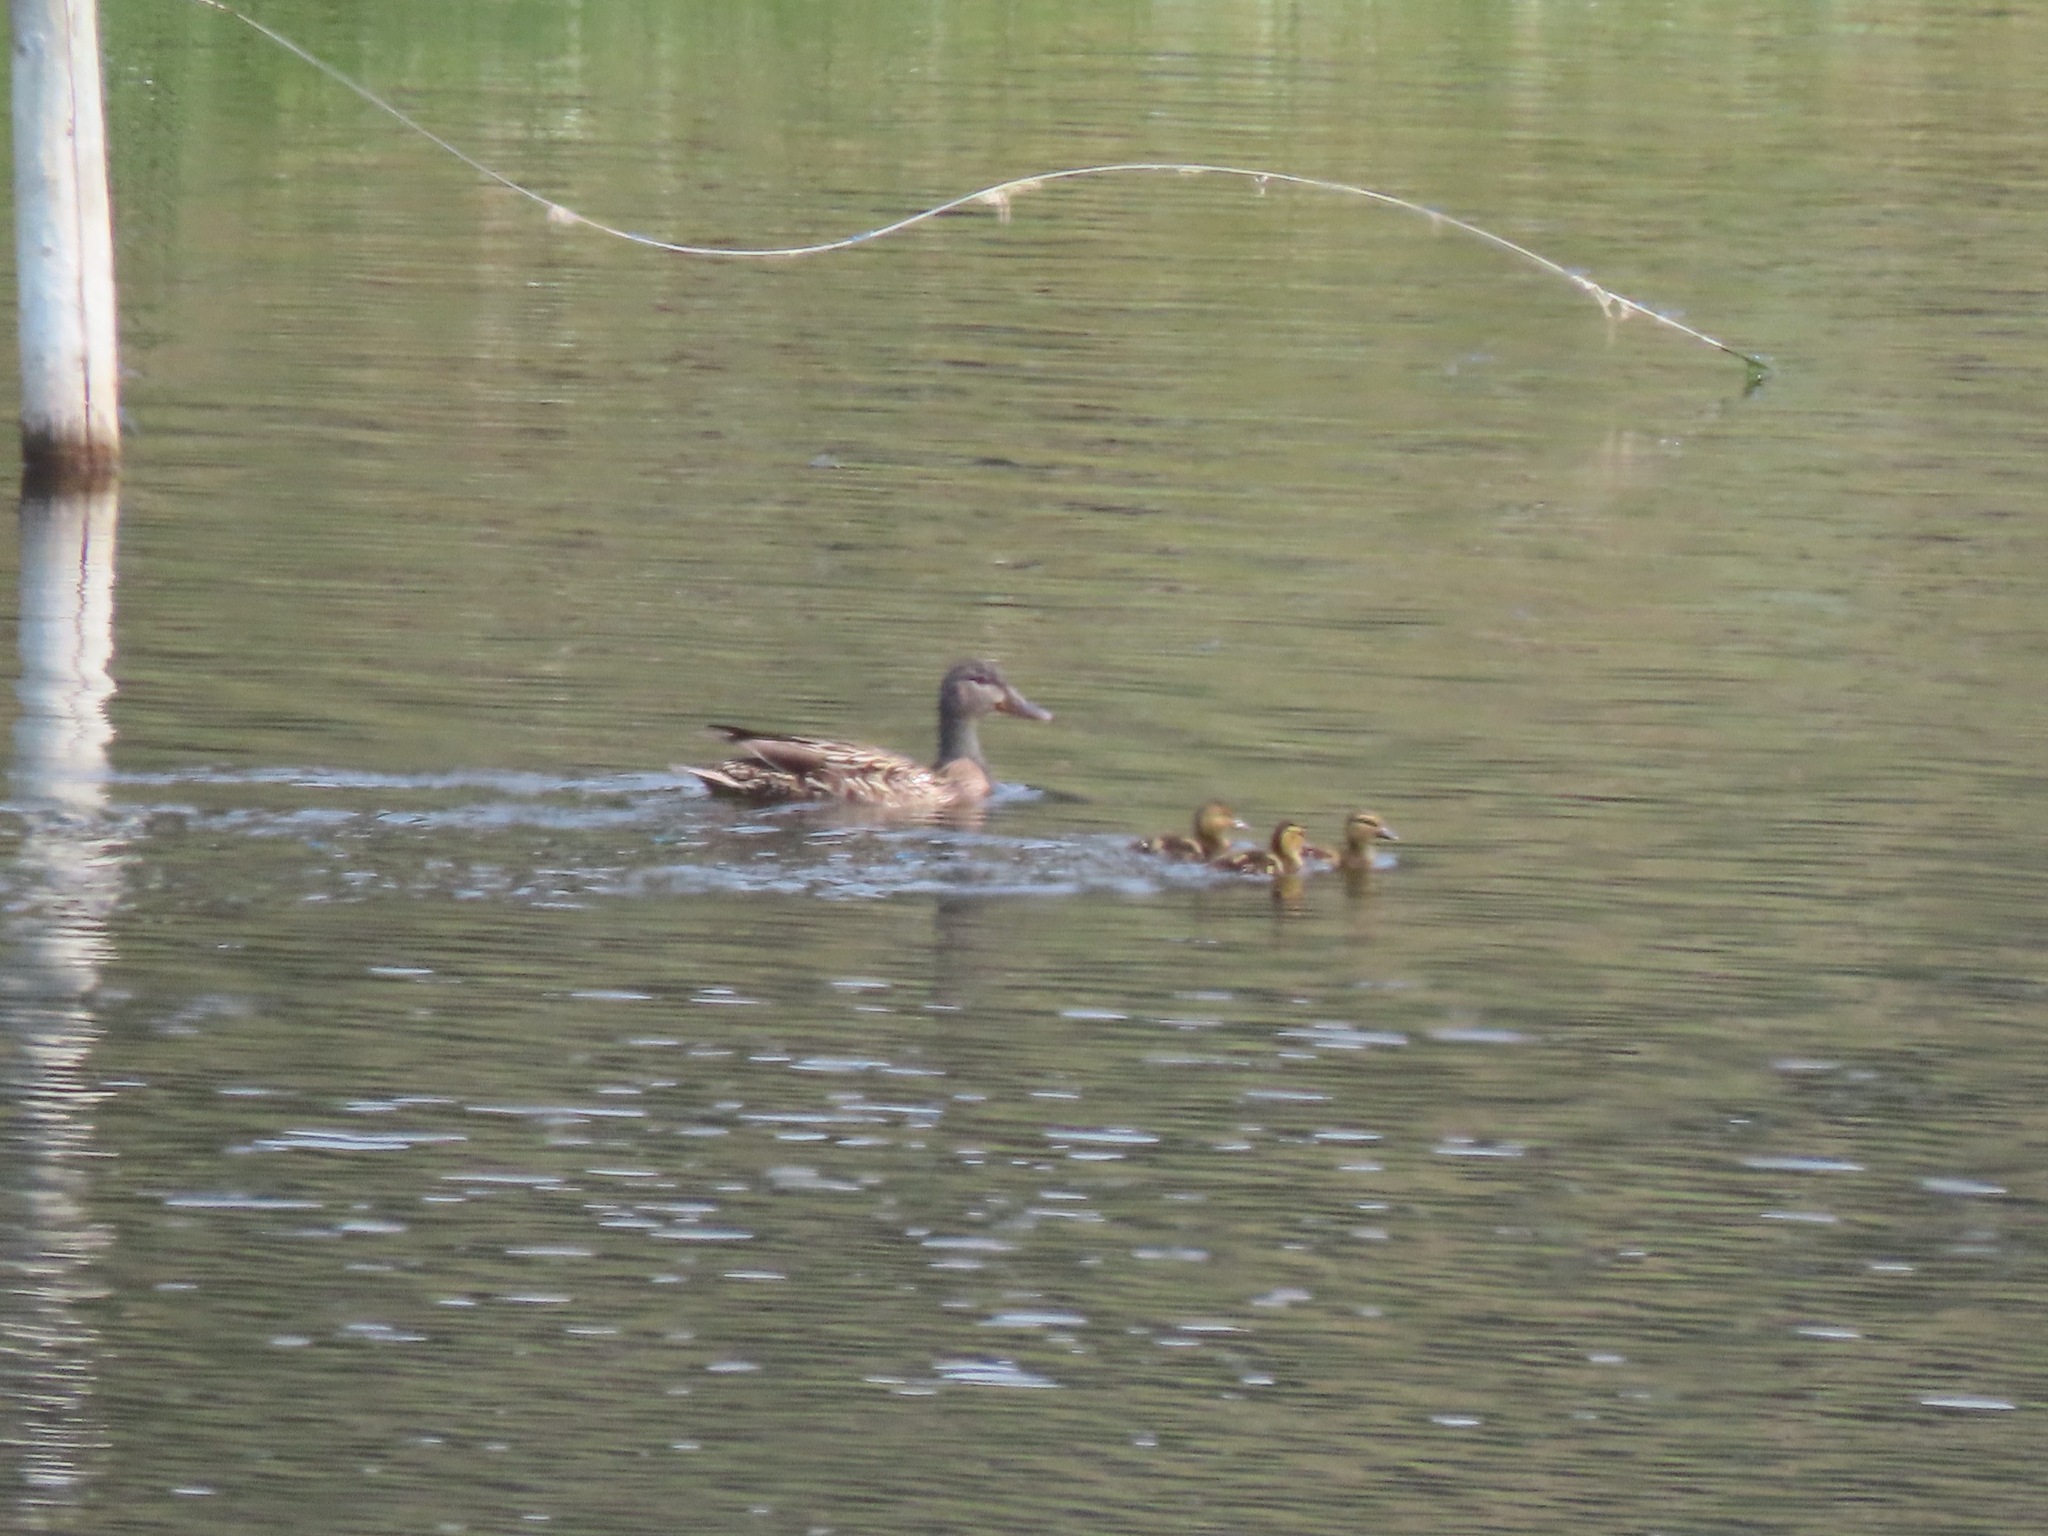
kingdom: Animalia
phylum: Chordata
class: Aves
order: Anseriformes
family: Anatidae
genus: Anas
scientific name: Anas platyrhynchos
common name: Mallard
